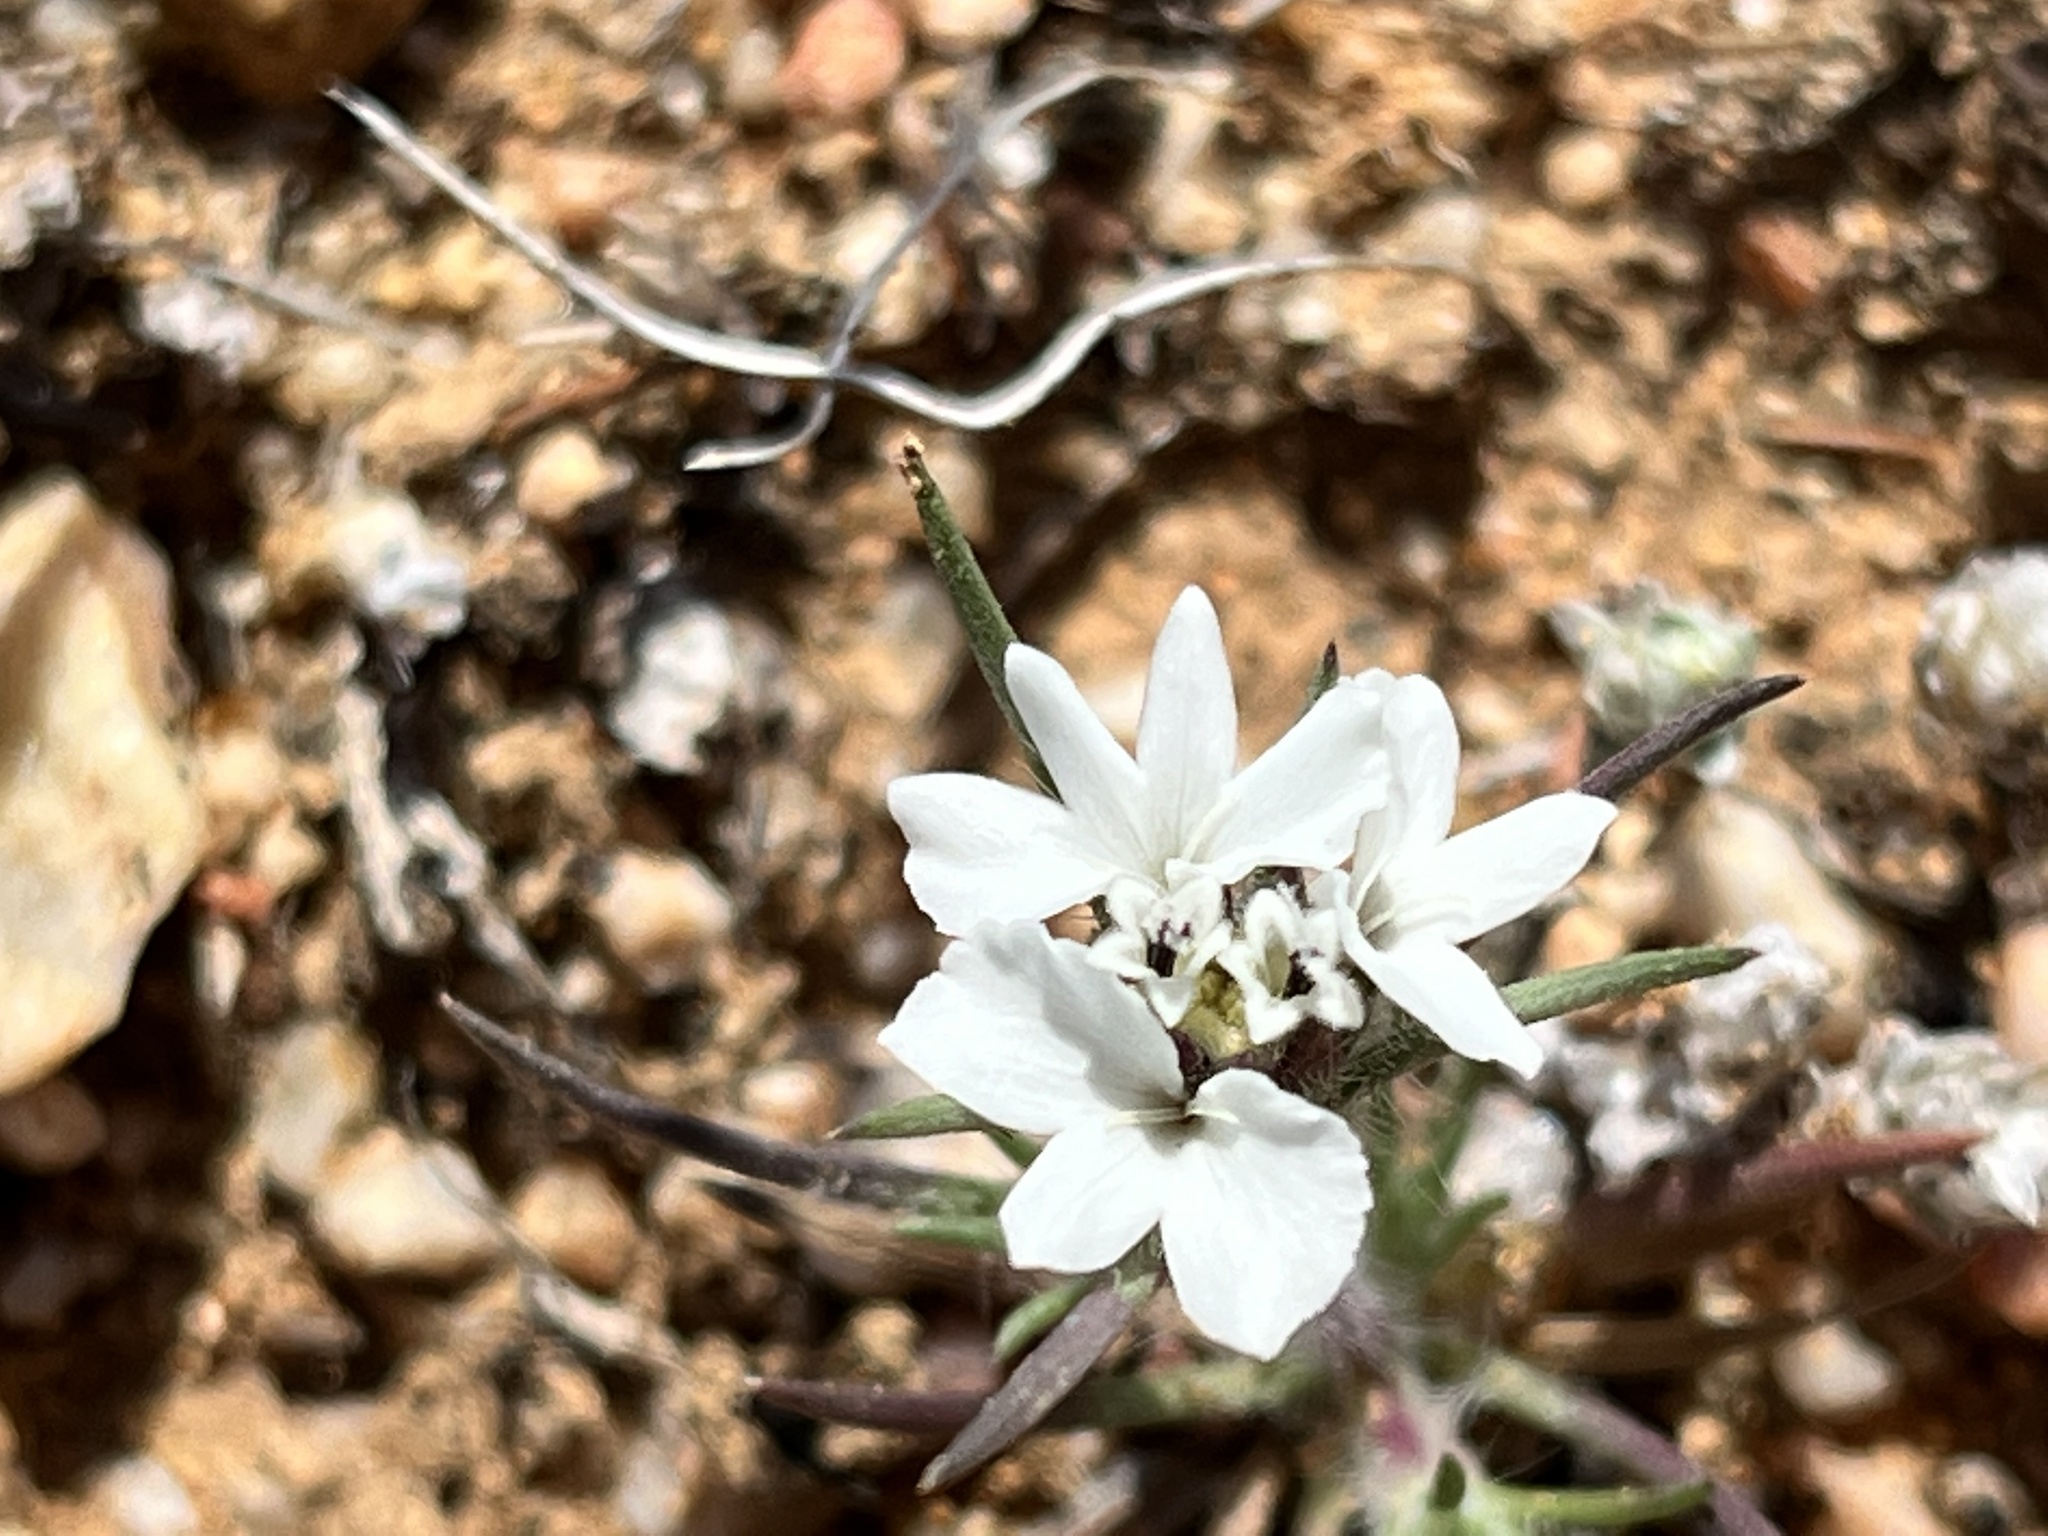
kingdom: Plantae
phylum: Tracheophyta
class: Magnoliopsida
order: Asterales
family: Asteraceae
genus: Calycadenia
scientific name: Calycadenia villosa
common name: Dwarf calycadenia
